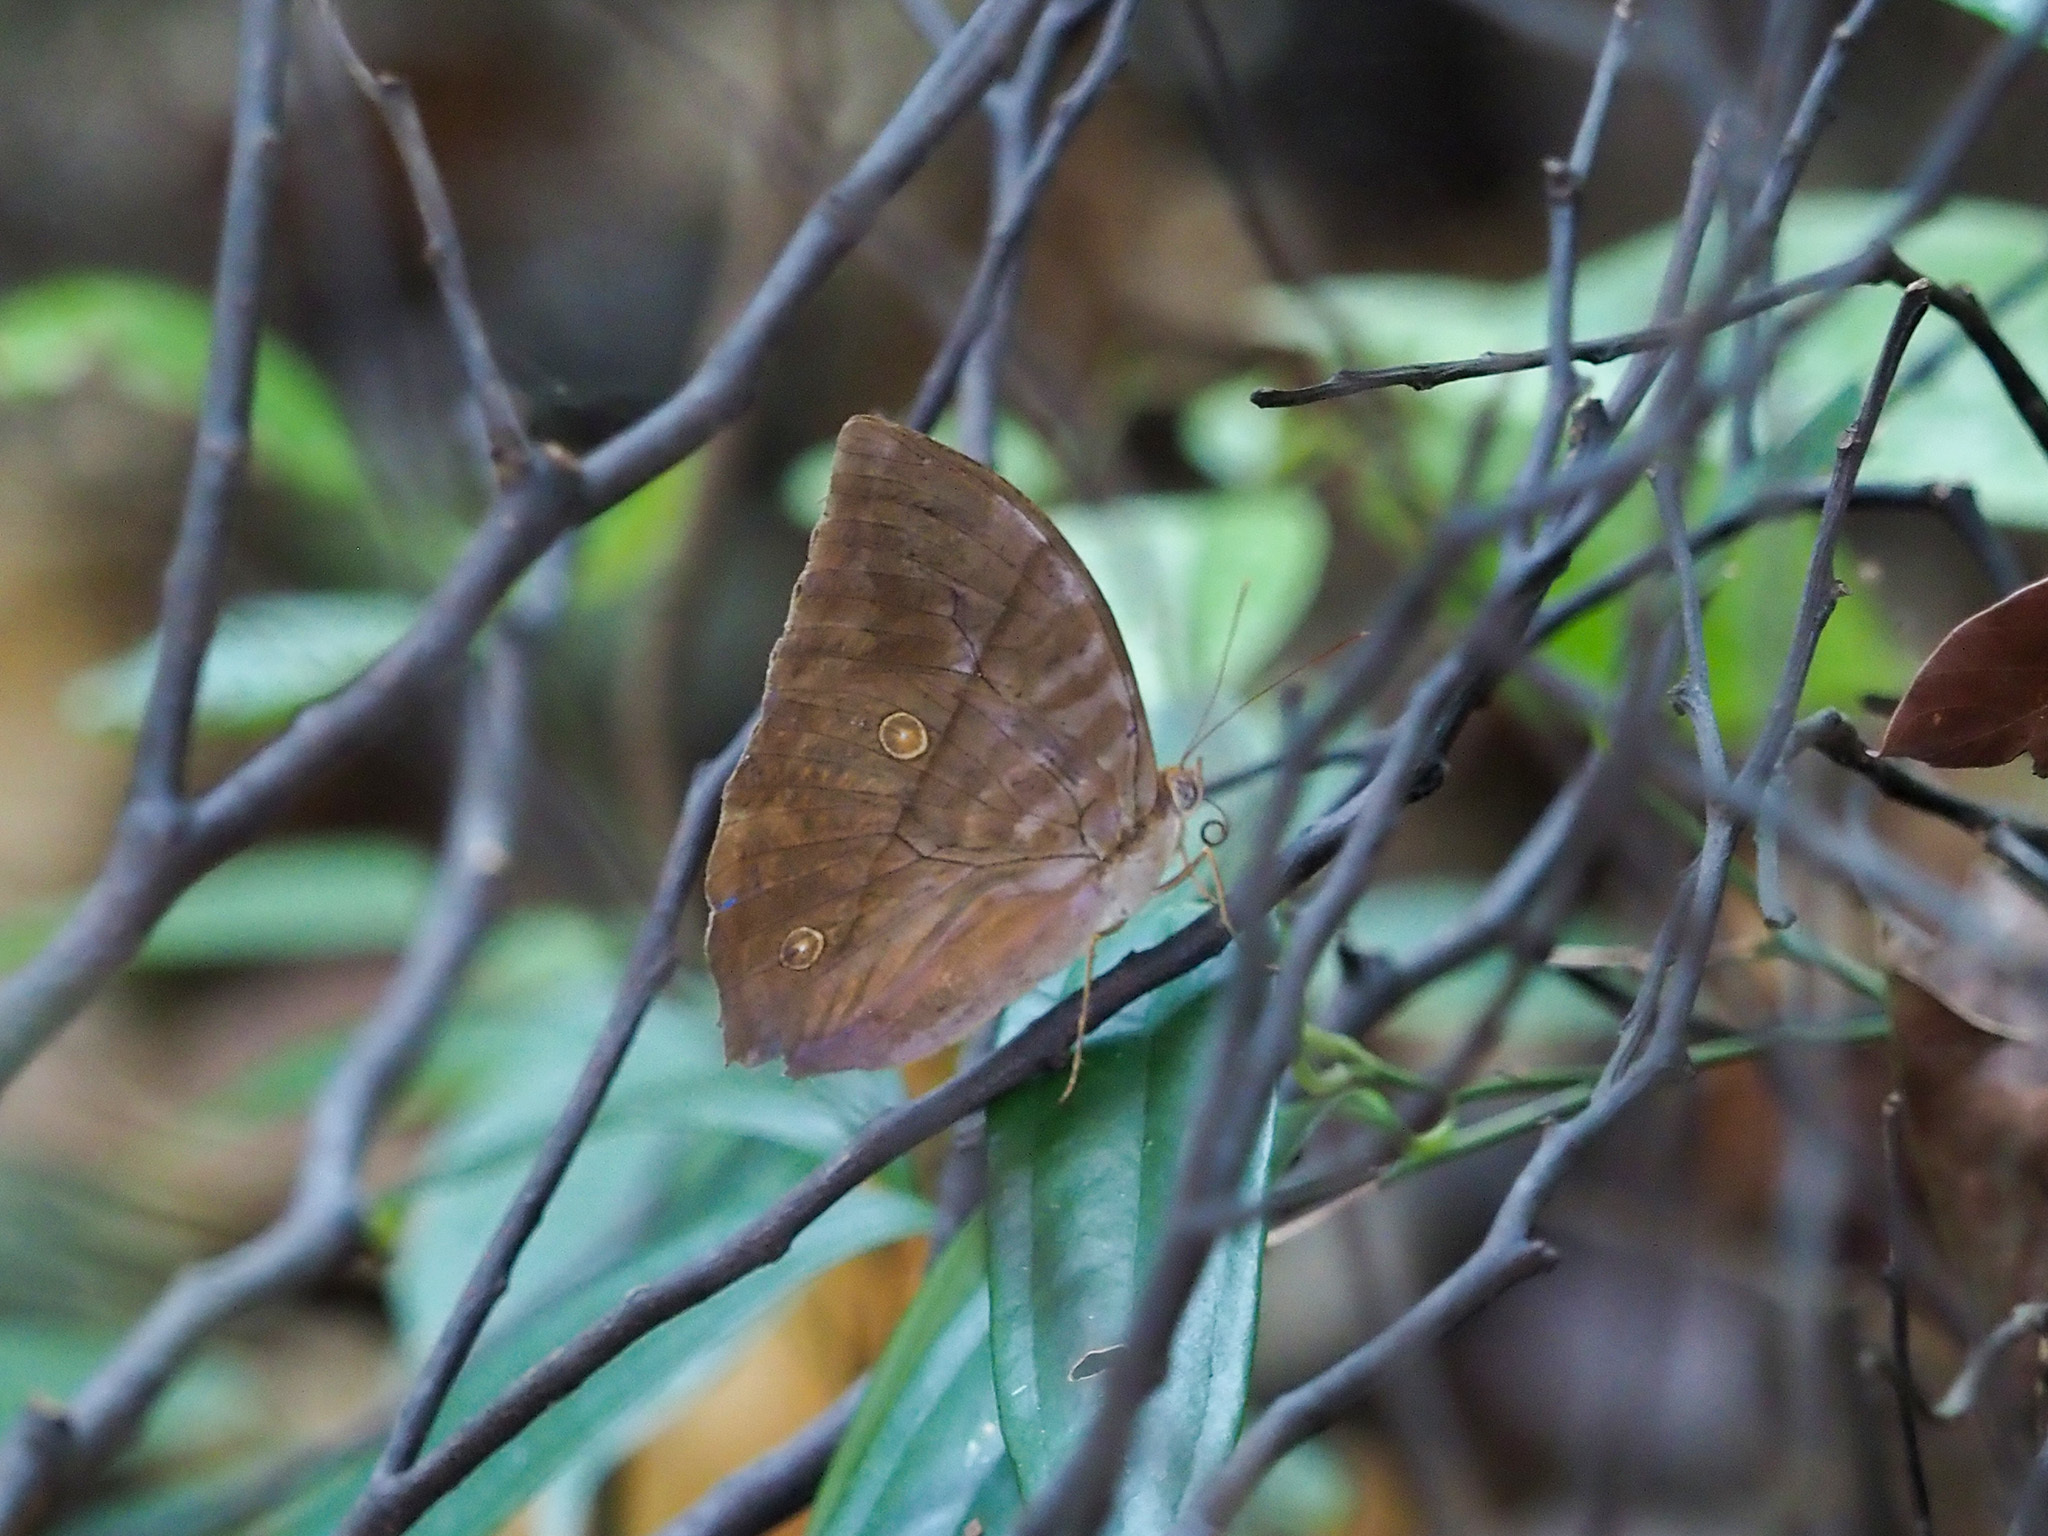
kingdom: Animalia
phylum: Arthropoda
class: Insecta
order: Lepidoptera
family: Nymphalidae
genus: Zeuxidia
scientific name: Zeuxidia amethysta
